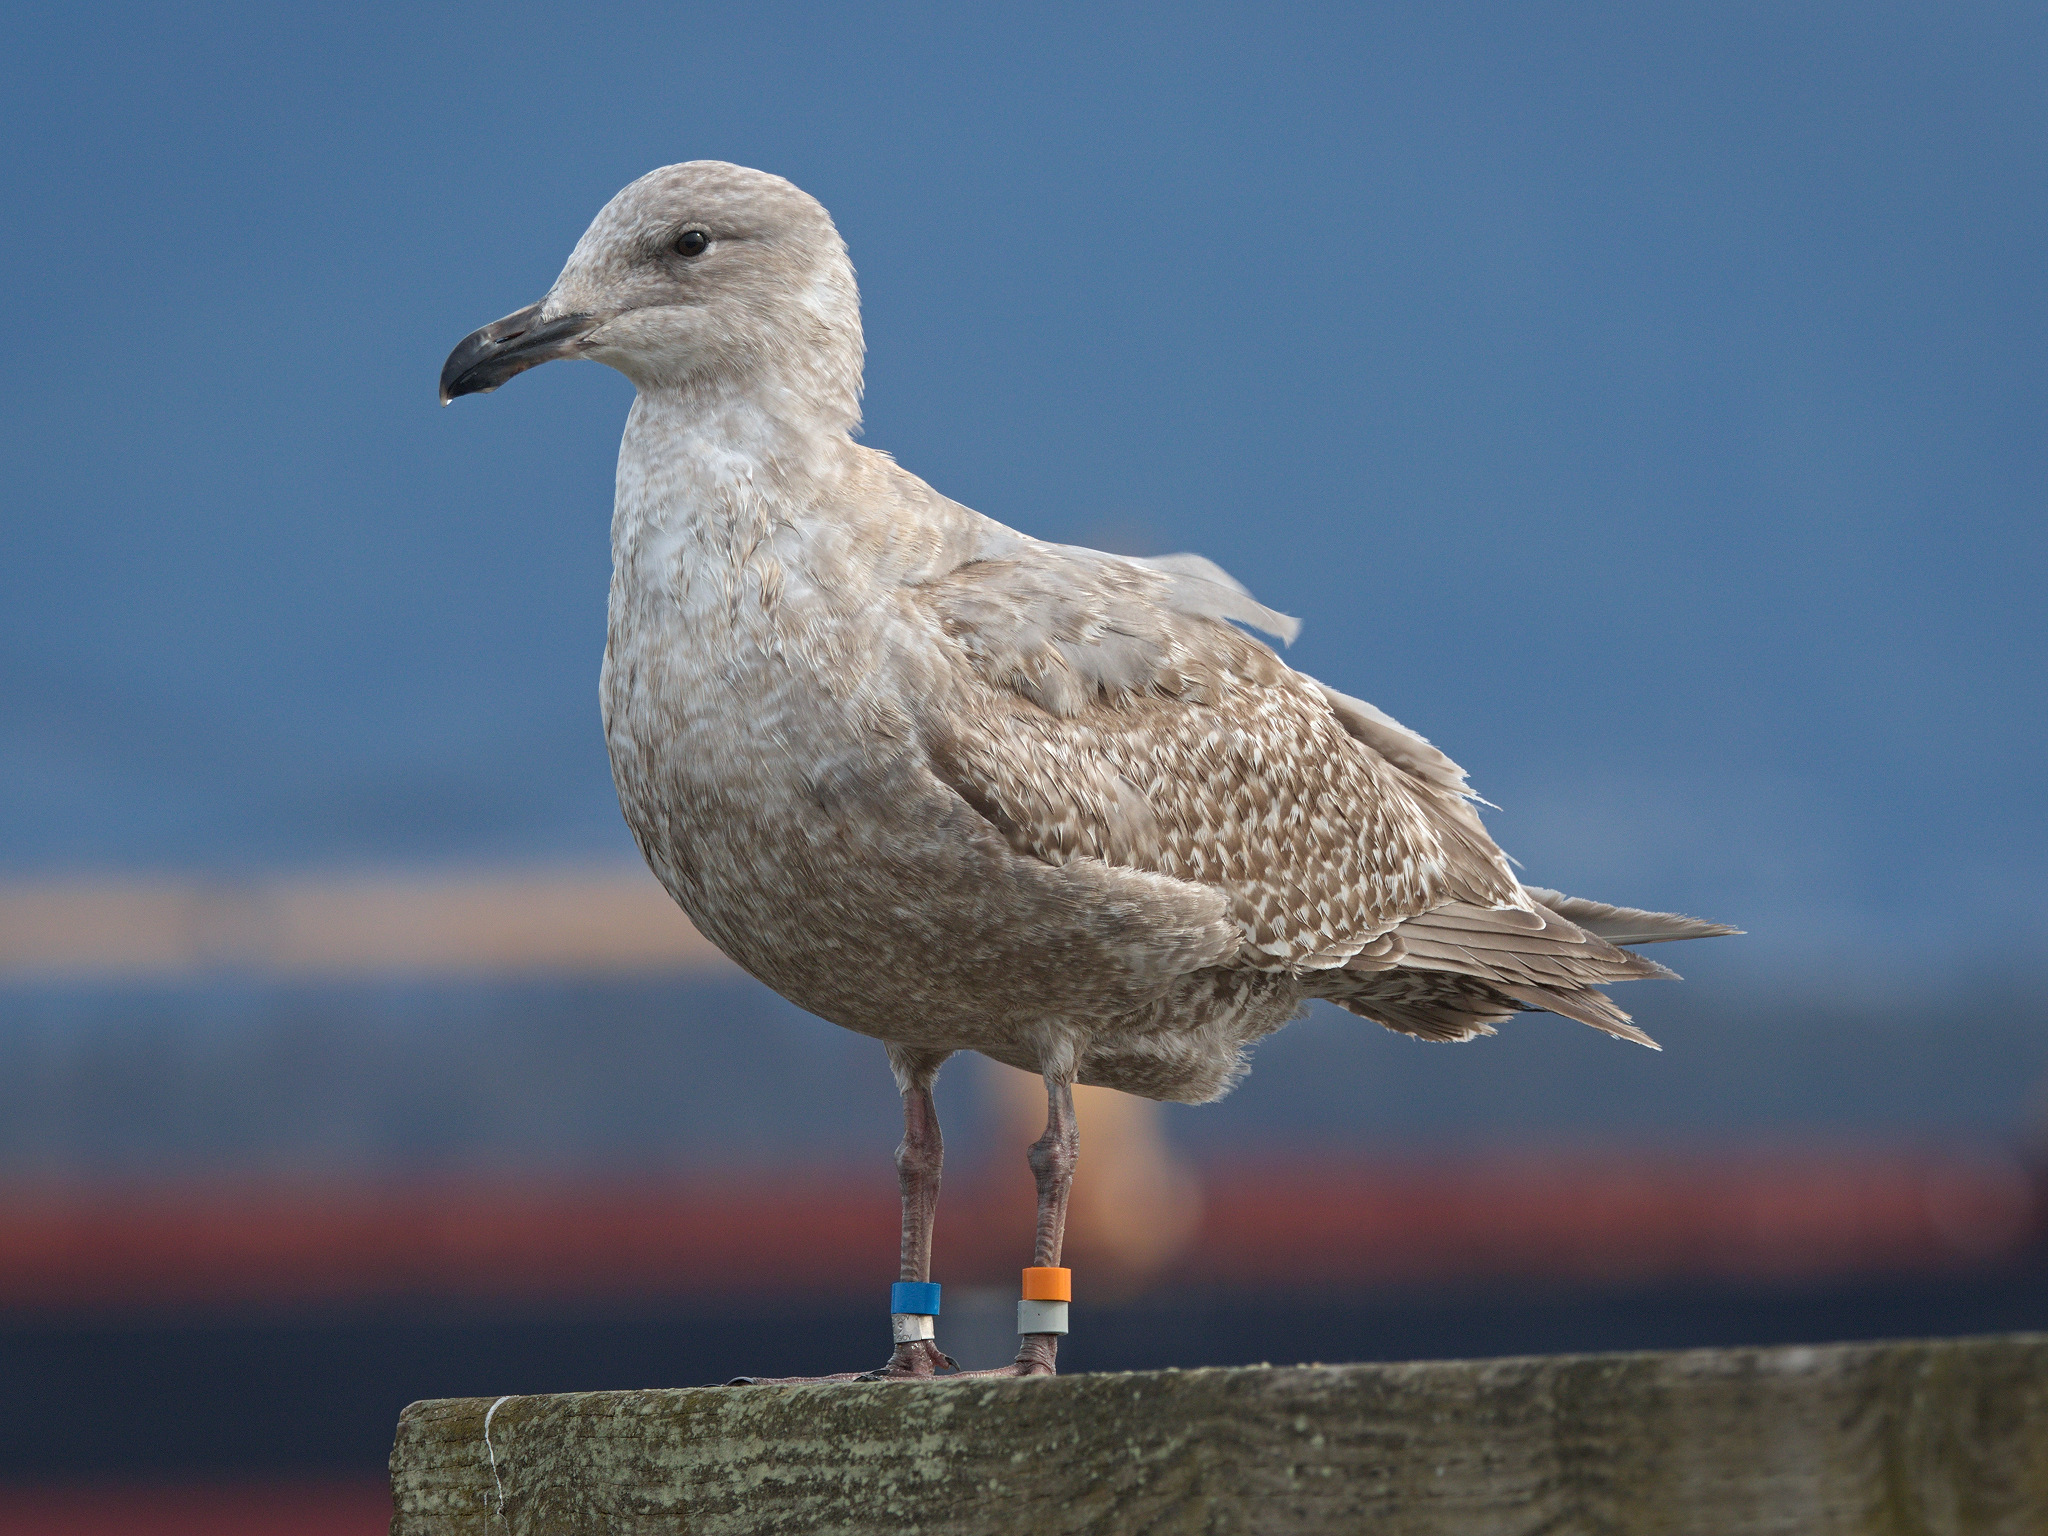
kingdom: Animalia
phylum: Chordata
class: Aves
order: Charadriiformes
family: Laridae
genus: Larus
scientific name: Larus
